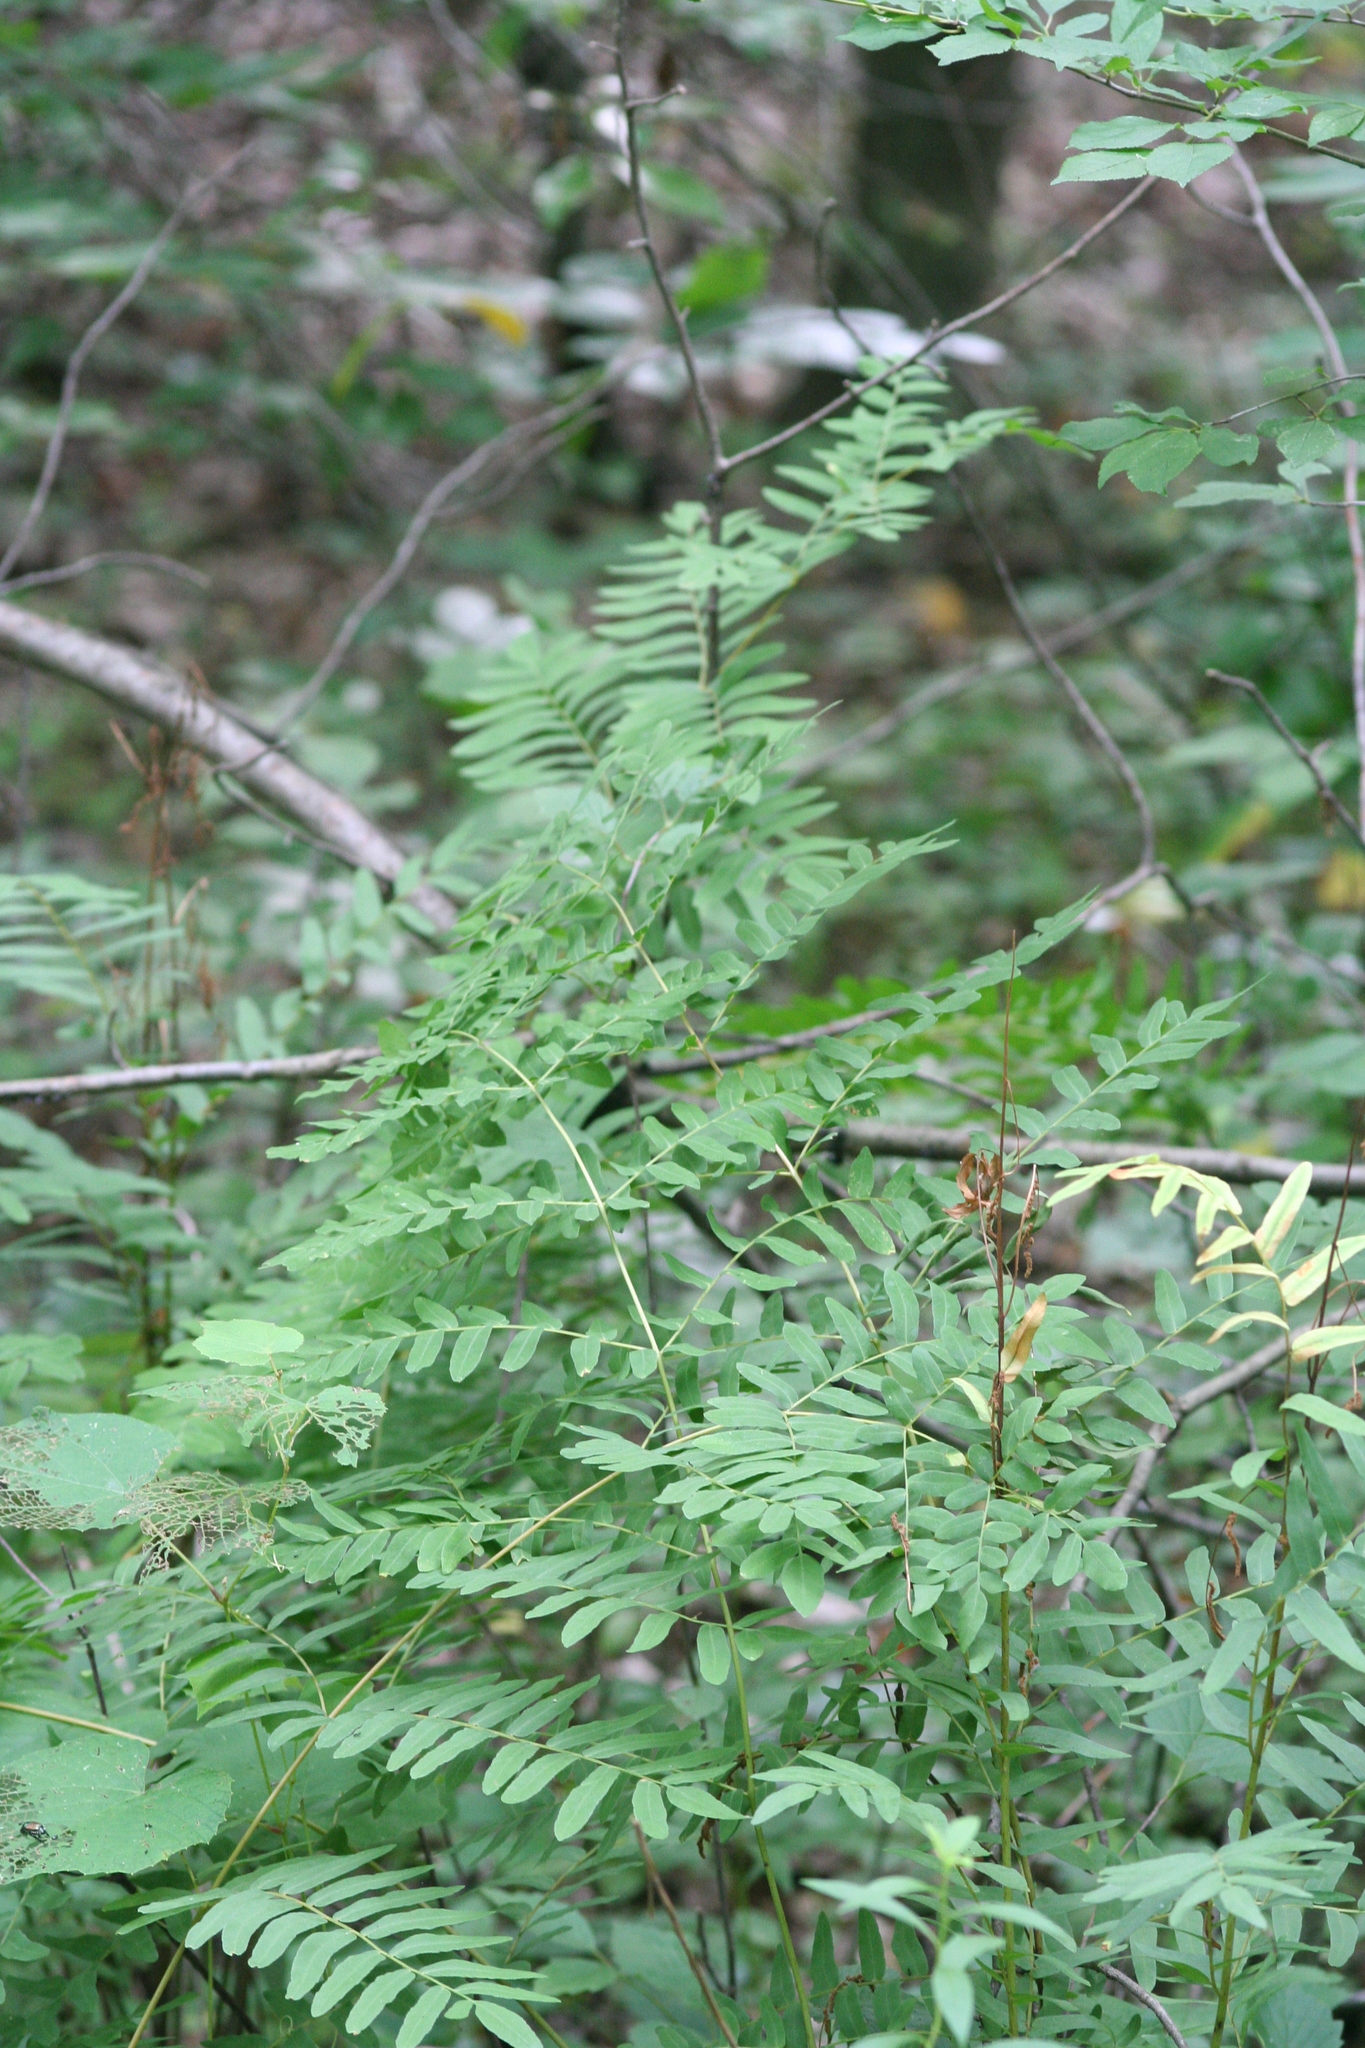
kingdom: Plantae
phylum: Tracheophyta
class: Polypodiopsida
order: Osmundales
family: Osmundaceae
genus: Osmunda
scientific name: Osmunda spectabilis
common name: American royal fern
